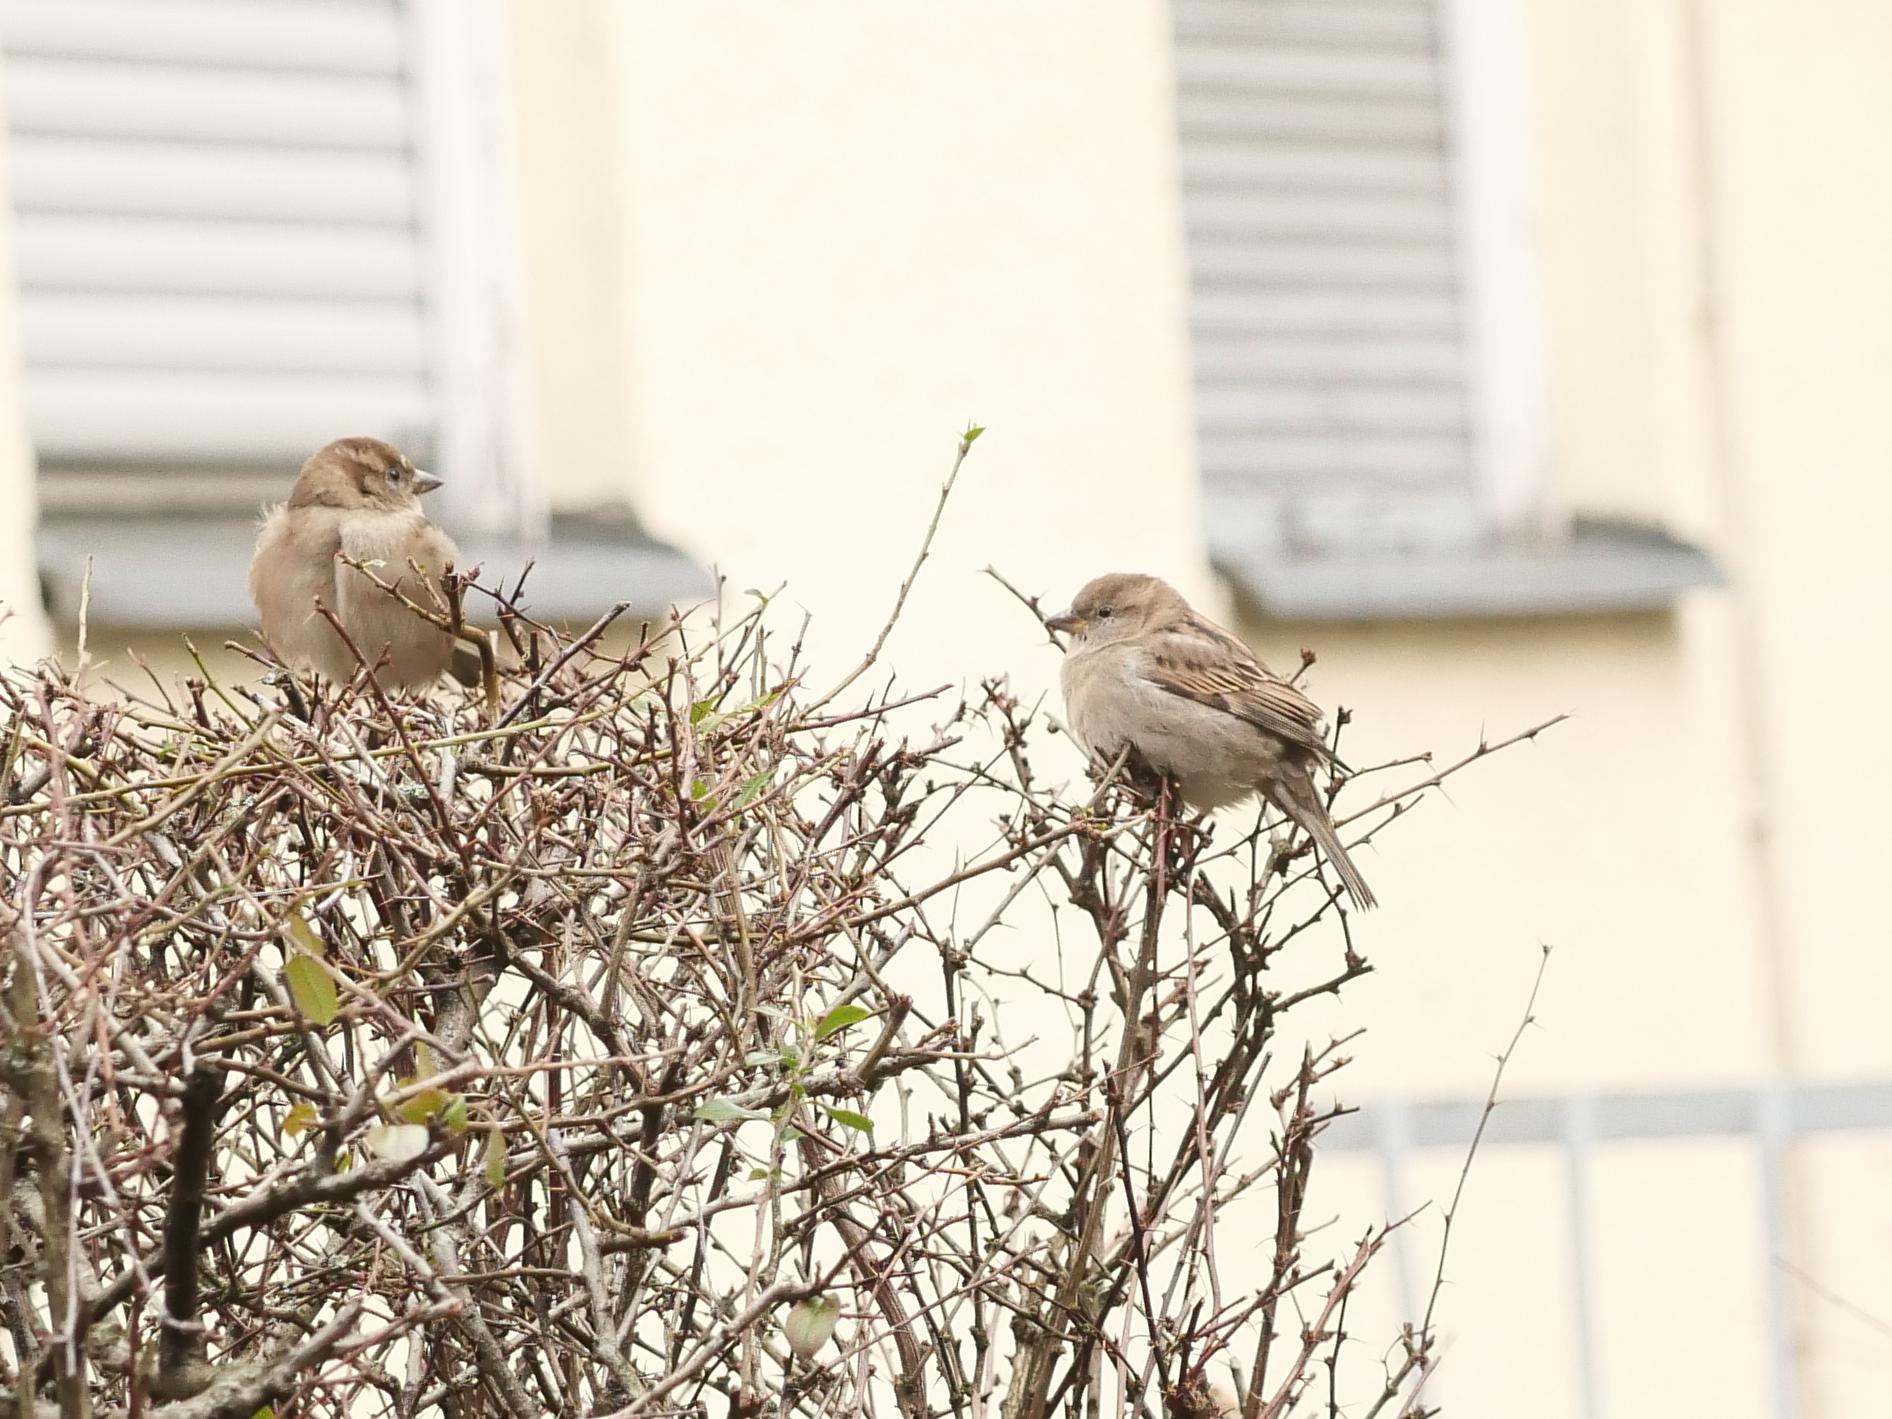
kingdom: Animalia
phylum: Chordata
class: Aves
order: Passeriformes
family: Passeridae
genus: Passer
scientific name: Passer domesticus
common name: House sparrow
